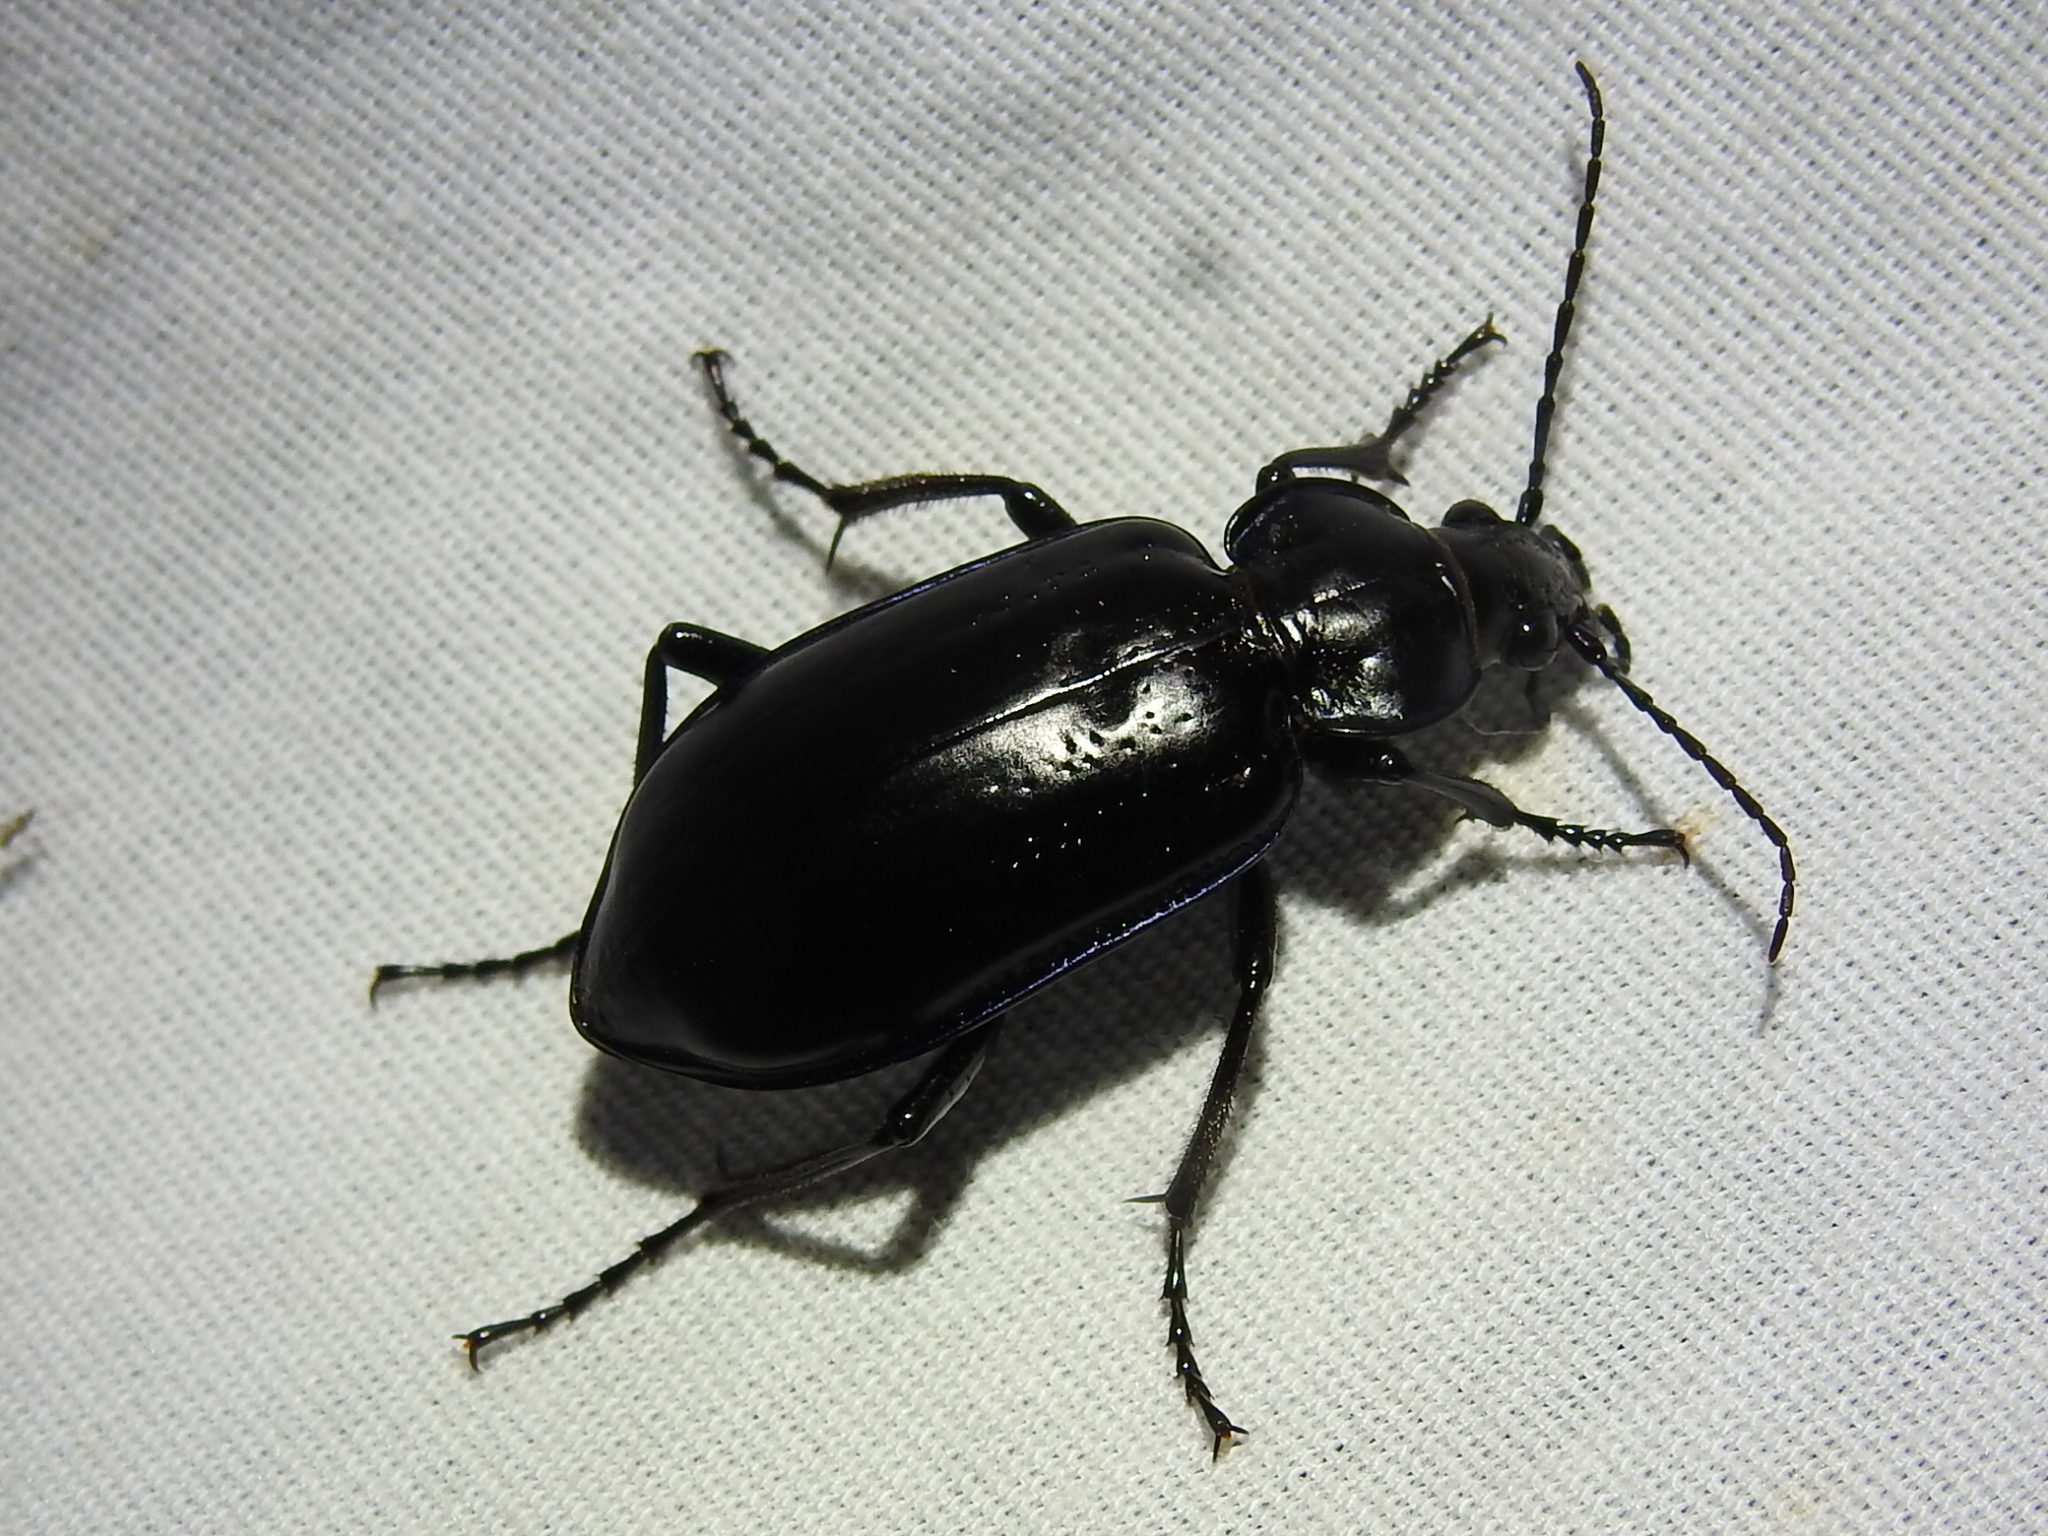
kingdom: Animalia
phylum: Arthropoda
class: Insecta
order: Coleoptera
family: Carabidae
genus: Calosoma
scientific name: Calosoma macrum
